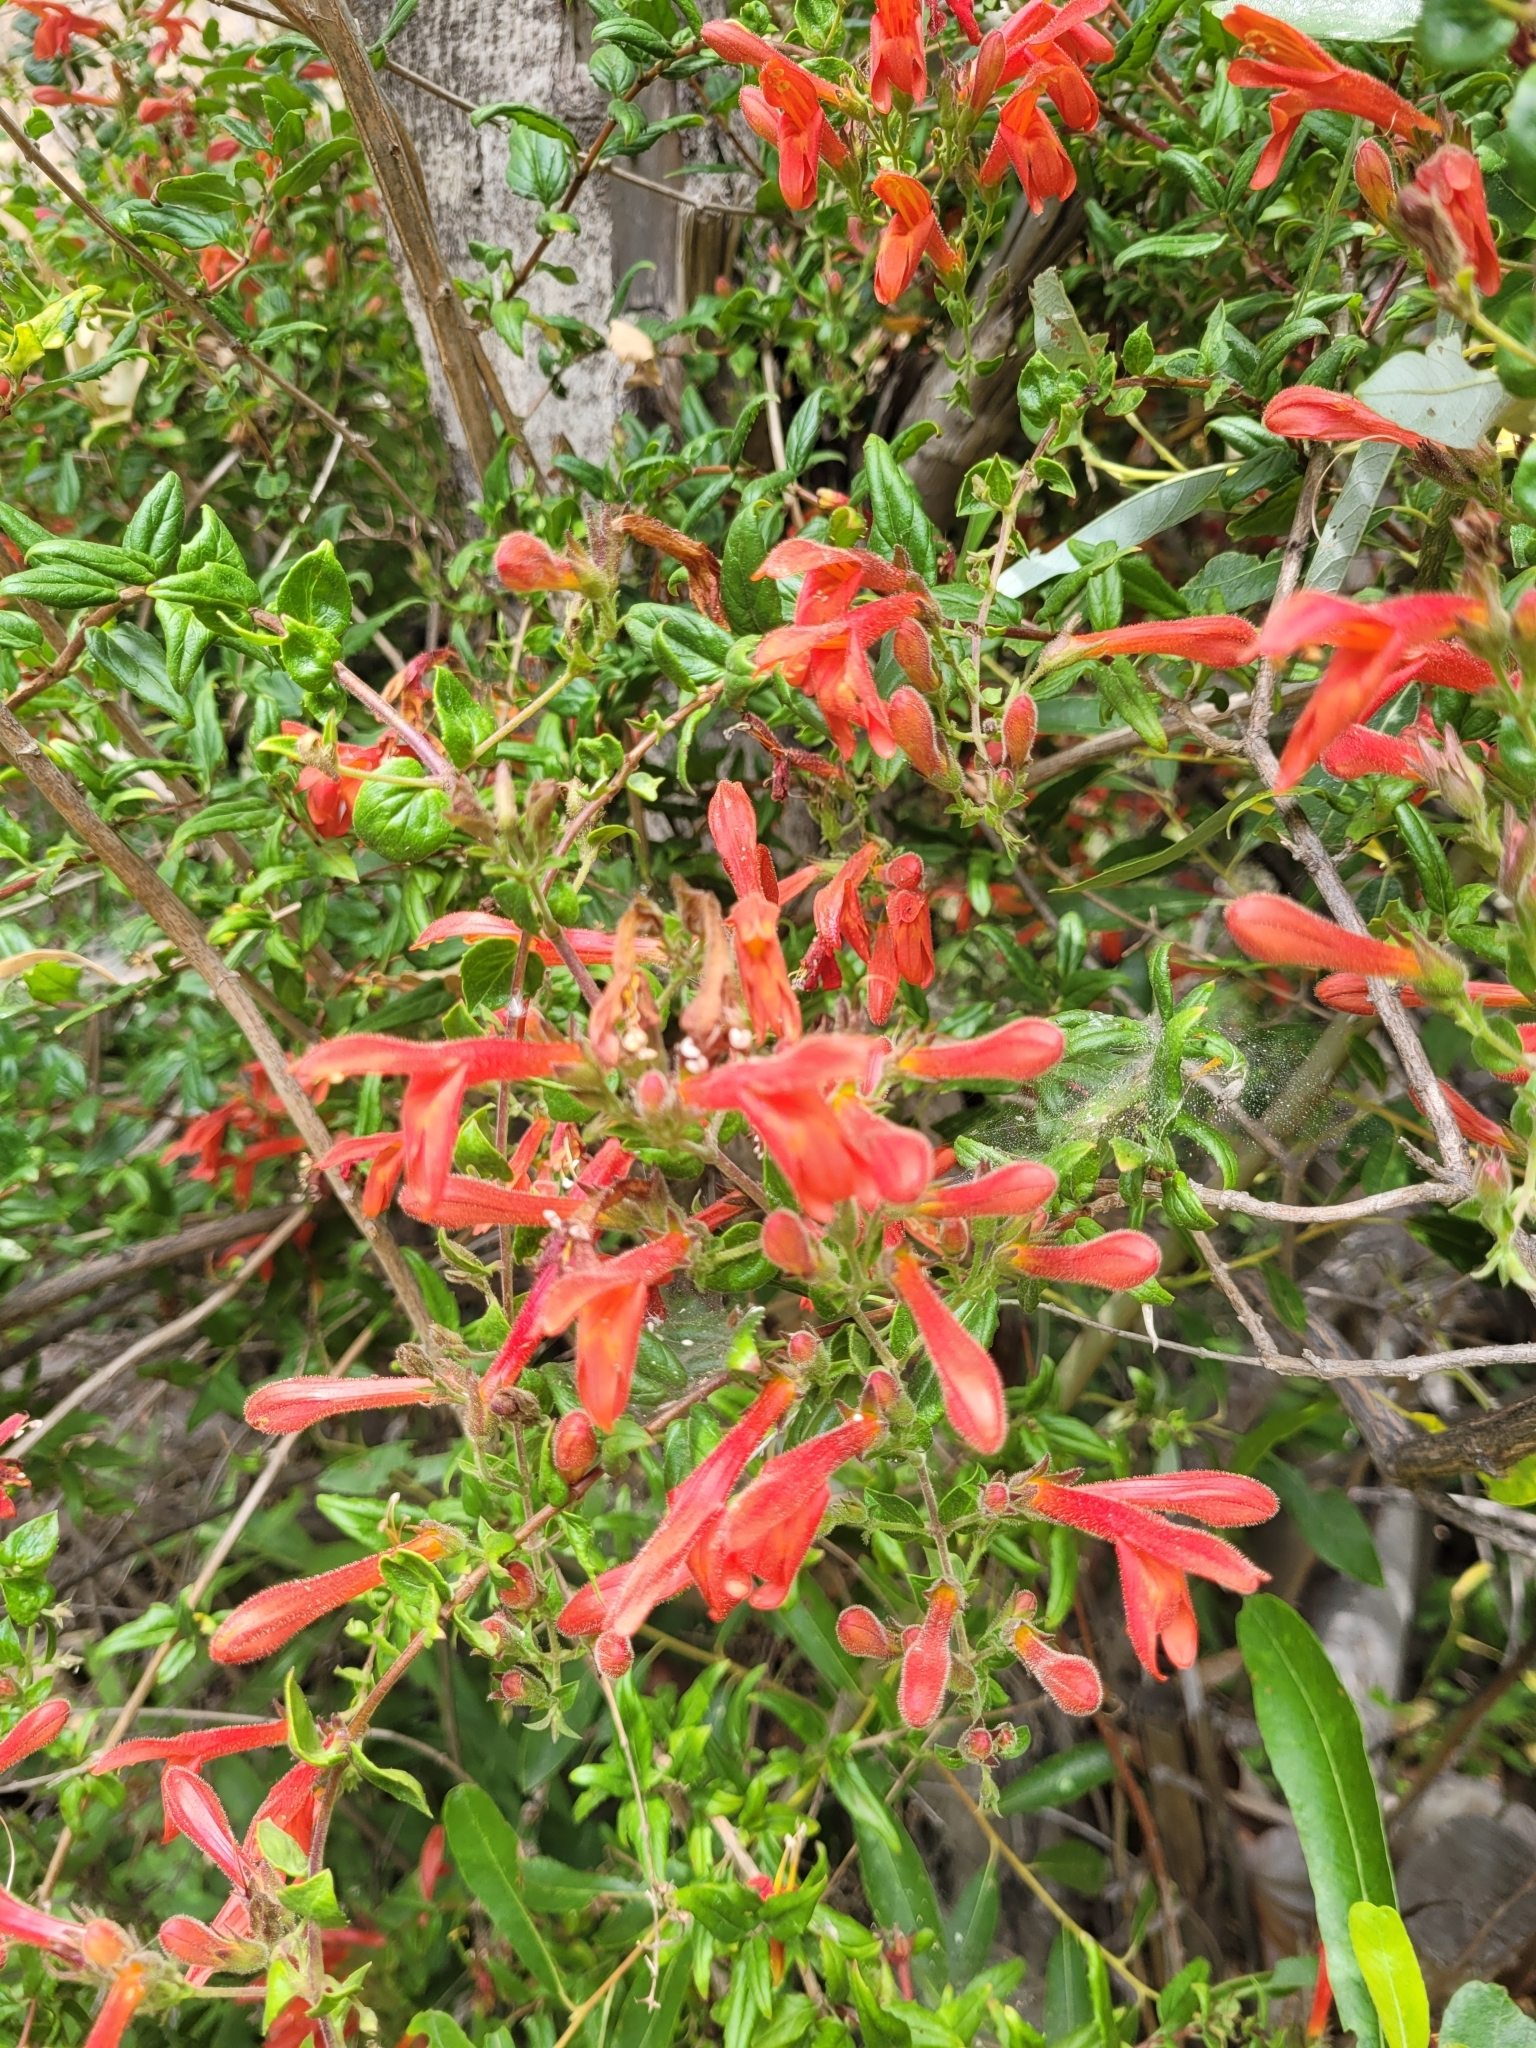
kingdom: Plantae
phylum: Tracheophyta
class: Magnoliopsida
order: Lamiales
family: Plantaginaceae
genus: Keckiella
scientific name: Keckiella cordifolia
